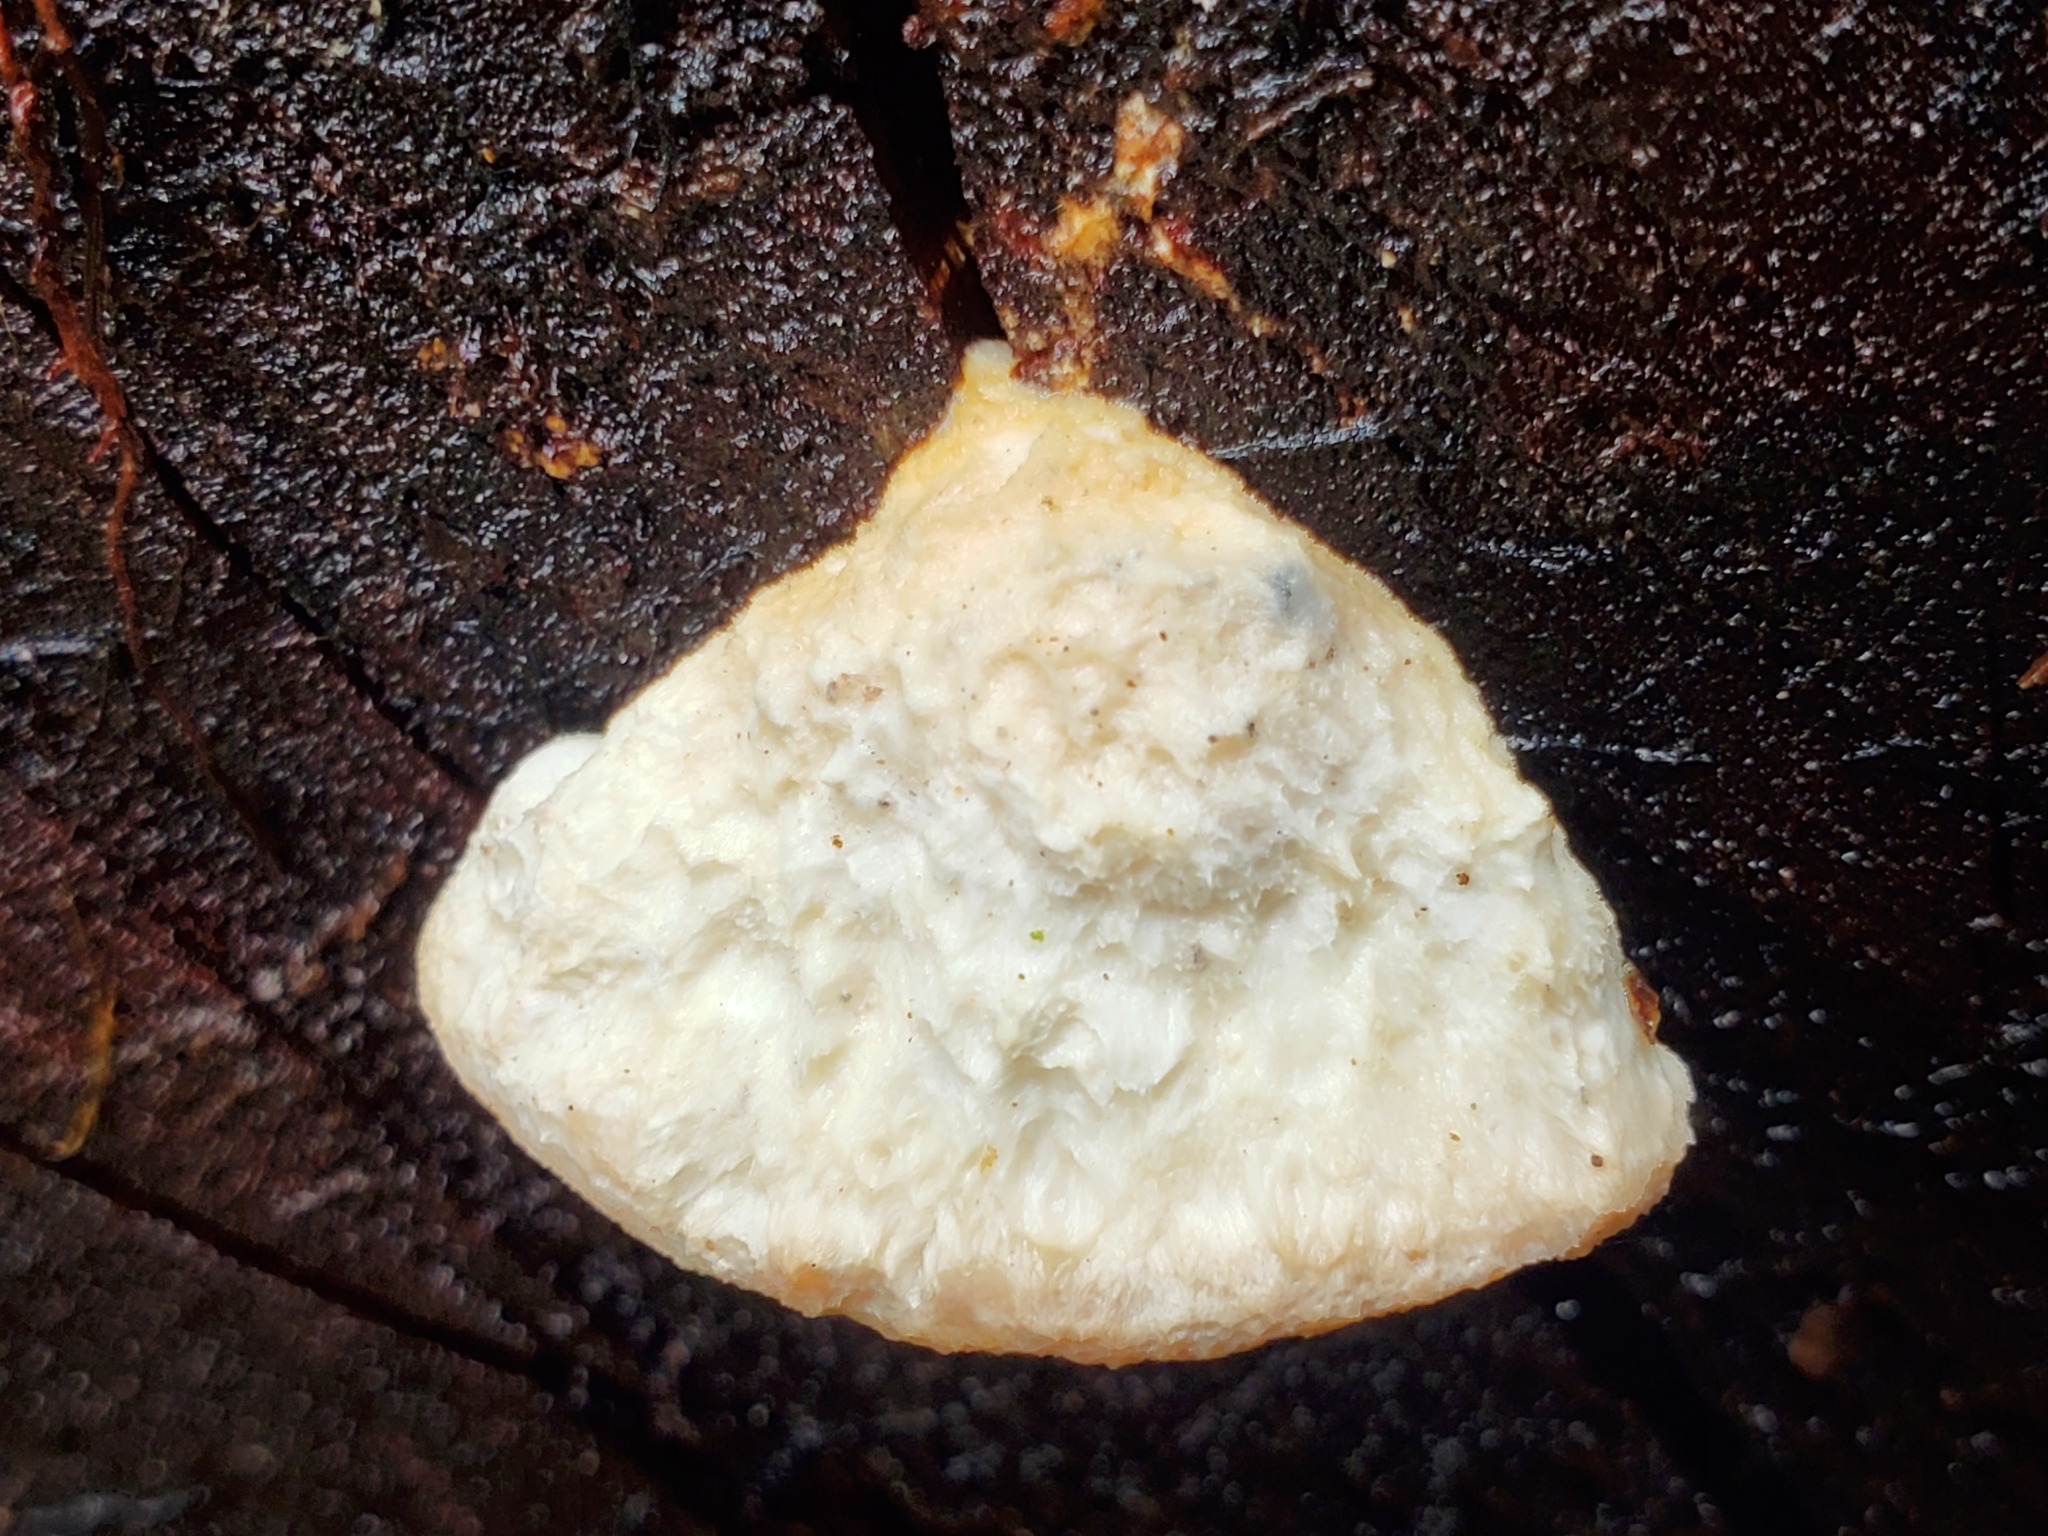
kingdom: Fungi
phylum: Basidiomycota
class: Agaricomycetes
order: Polyporales
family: Incrustoporiaceae
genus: Tyromyces
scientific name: Tyromyces chioneus
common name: White cheese polypore
